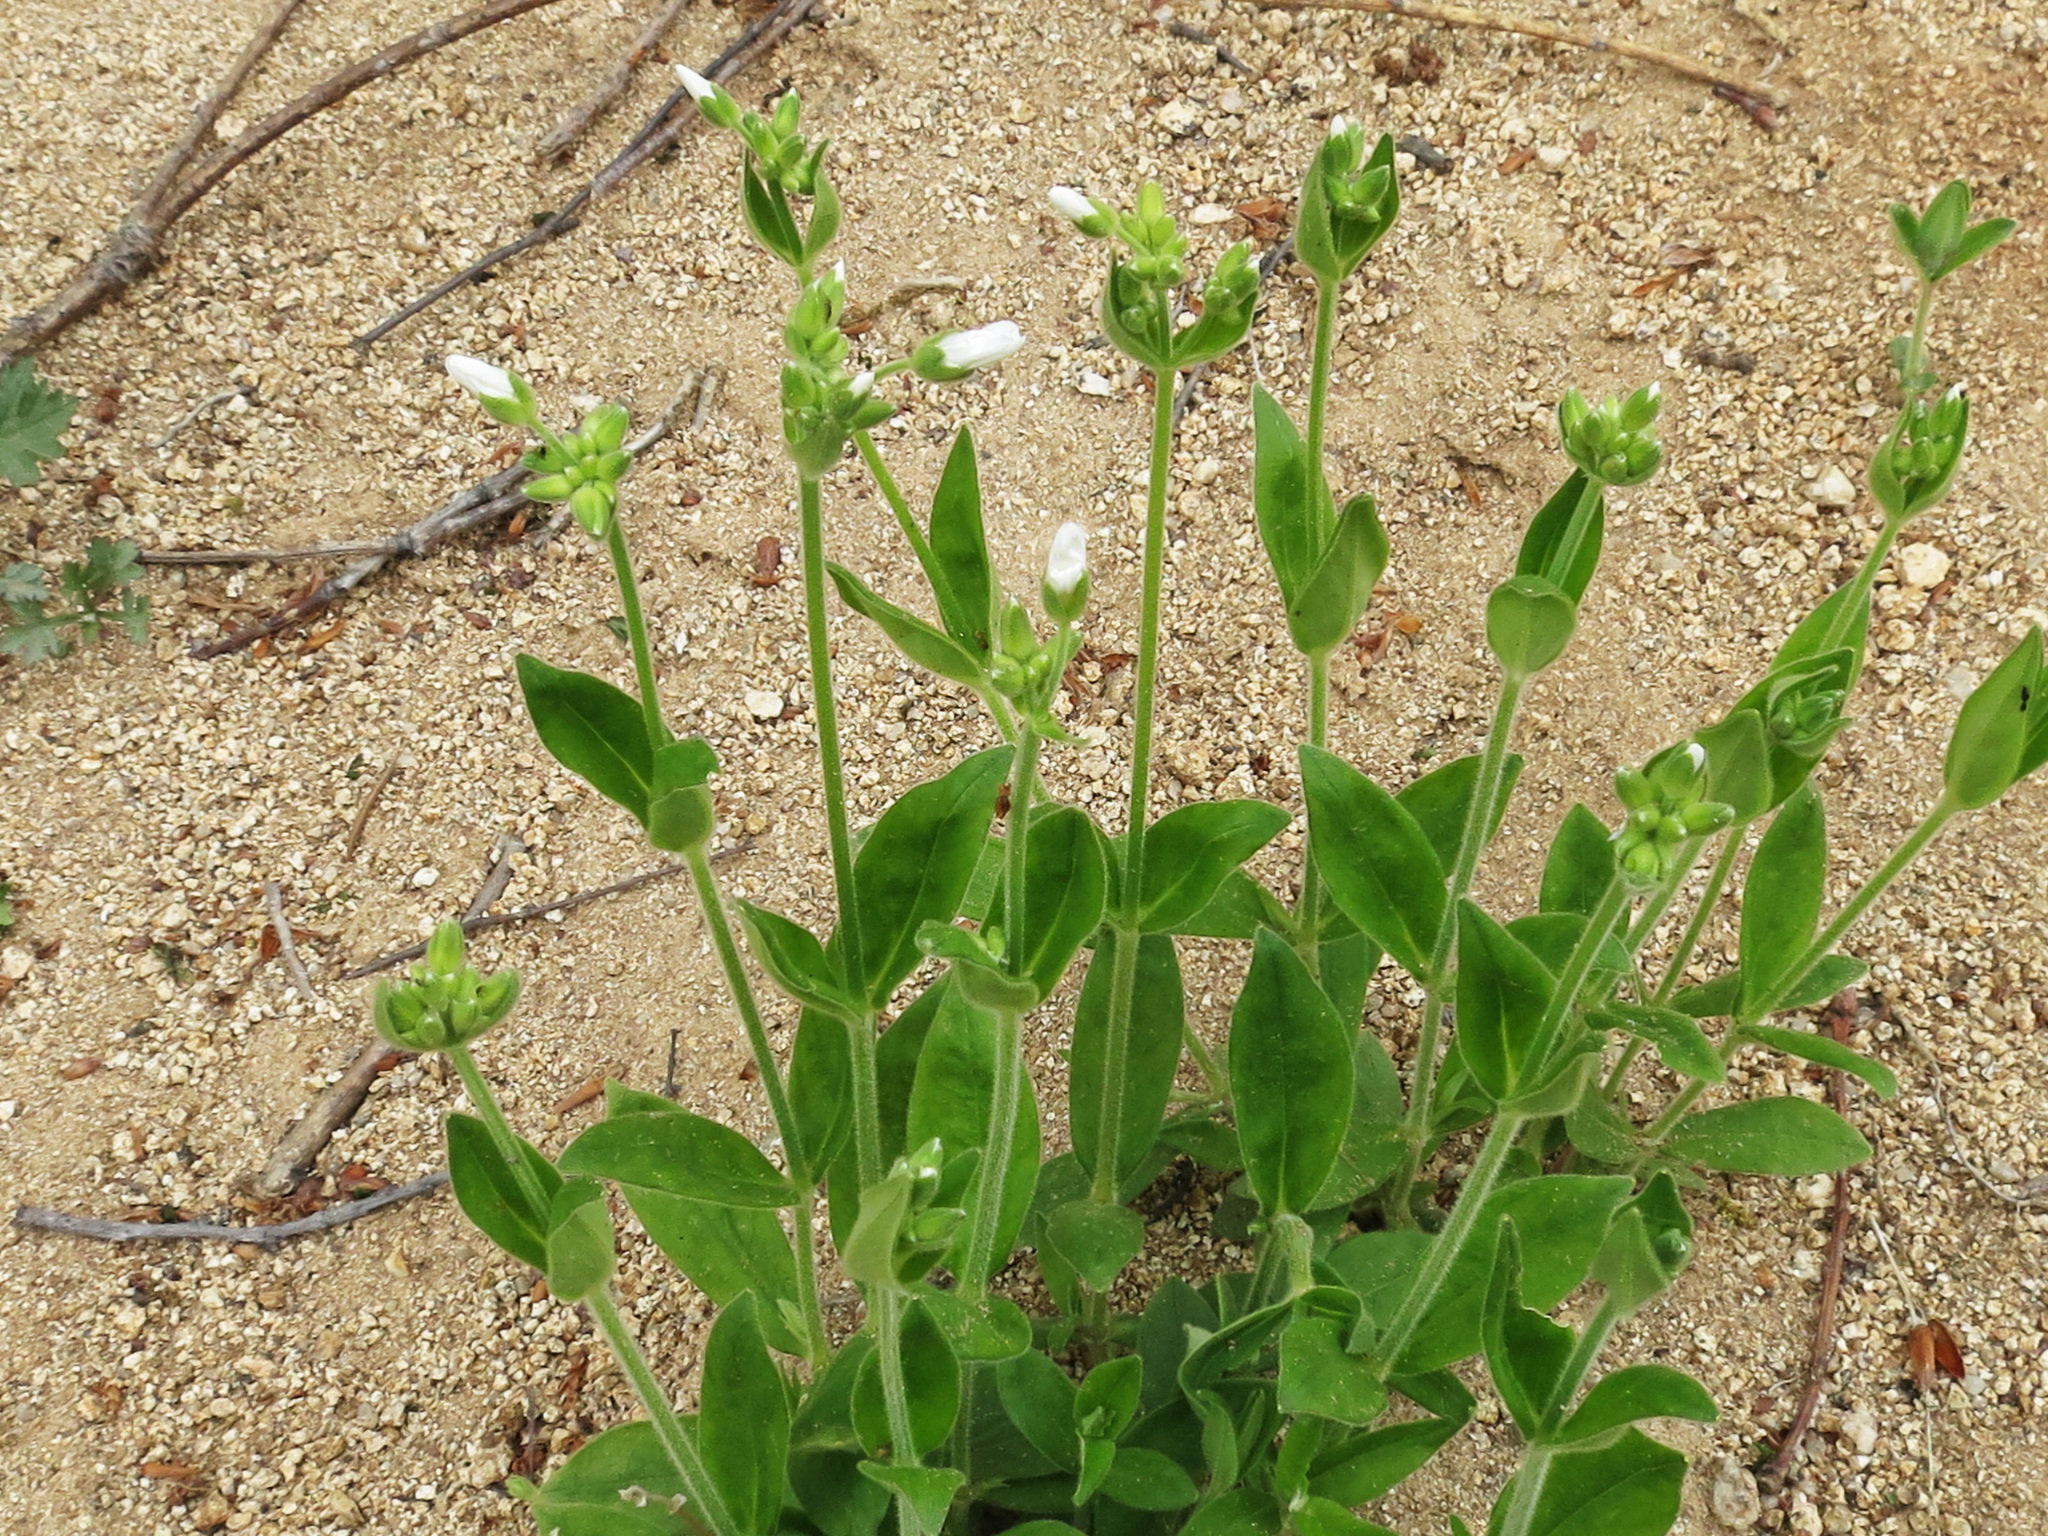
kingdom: Plantae
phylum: Tracheophyta
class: Magnoliopsida
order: Caryophyllales
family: Caryophyllaceae
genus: Cerastium
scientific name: Cerastium pauciflorum
